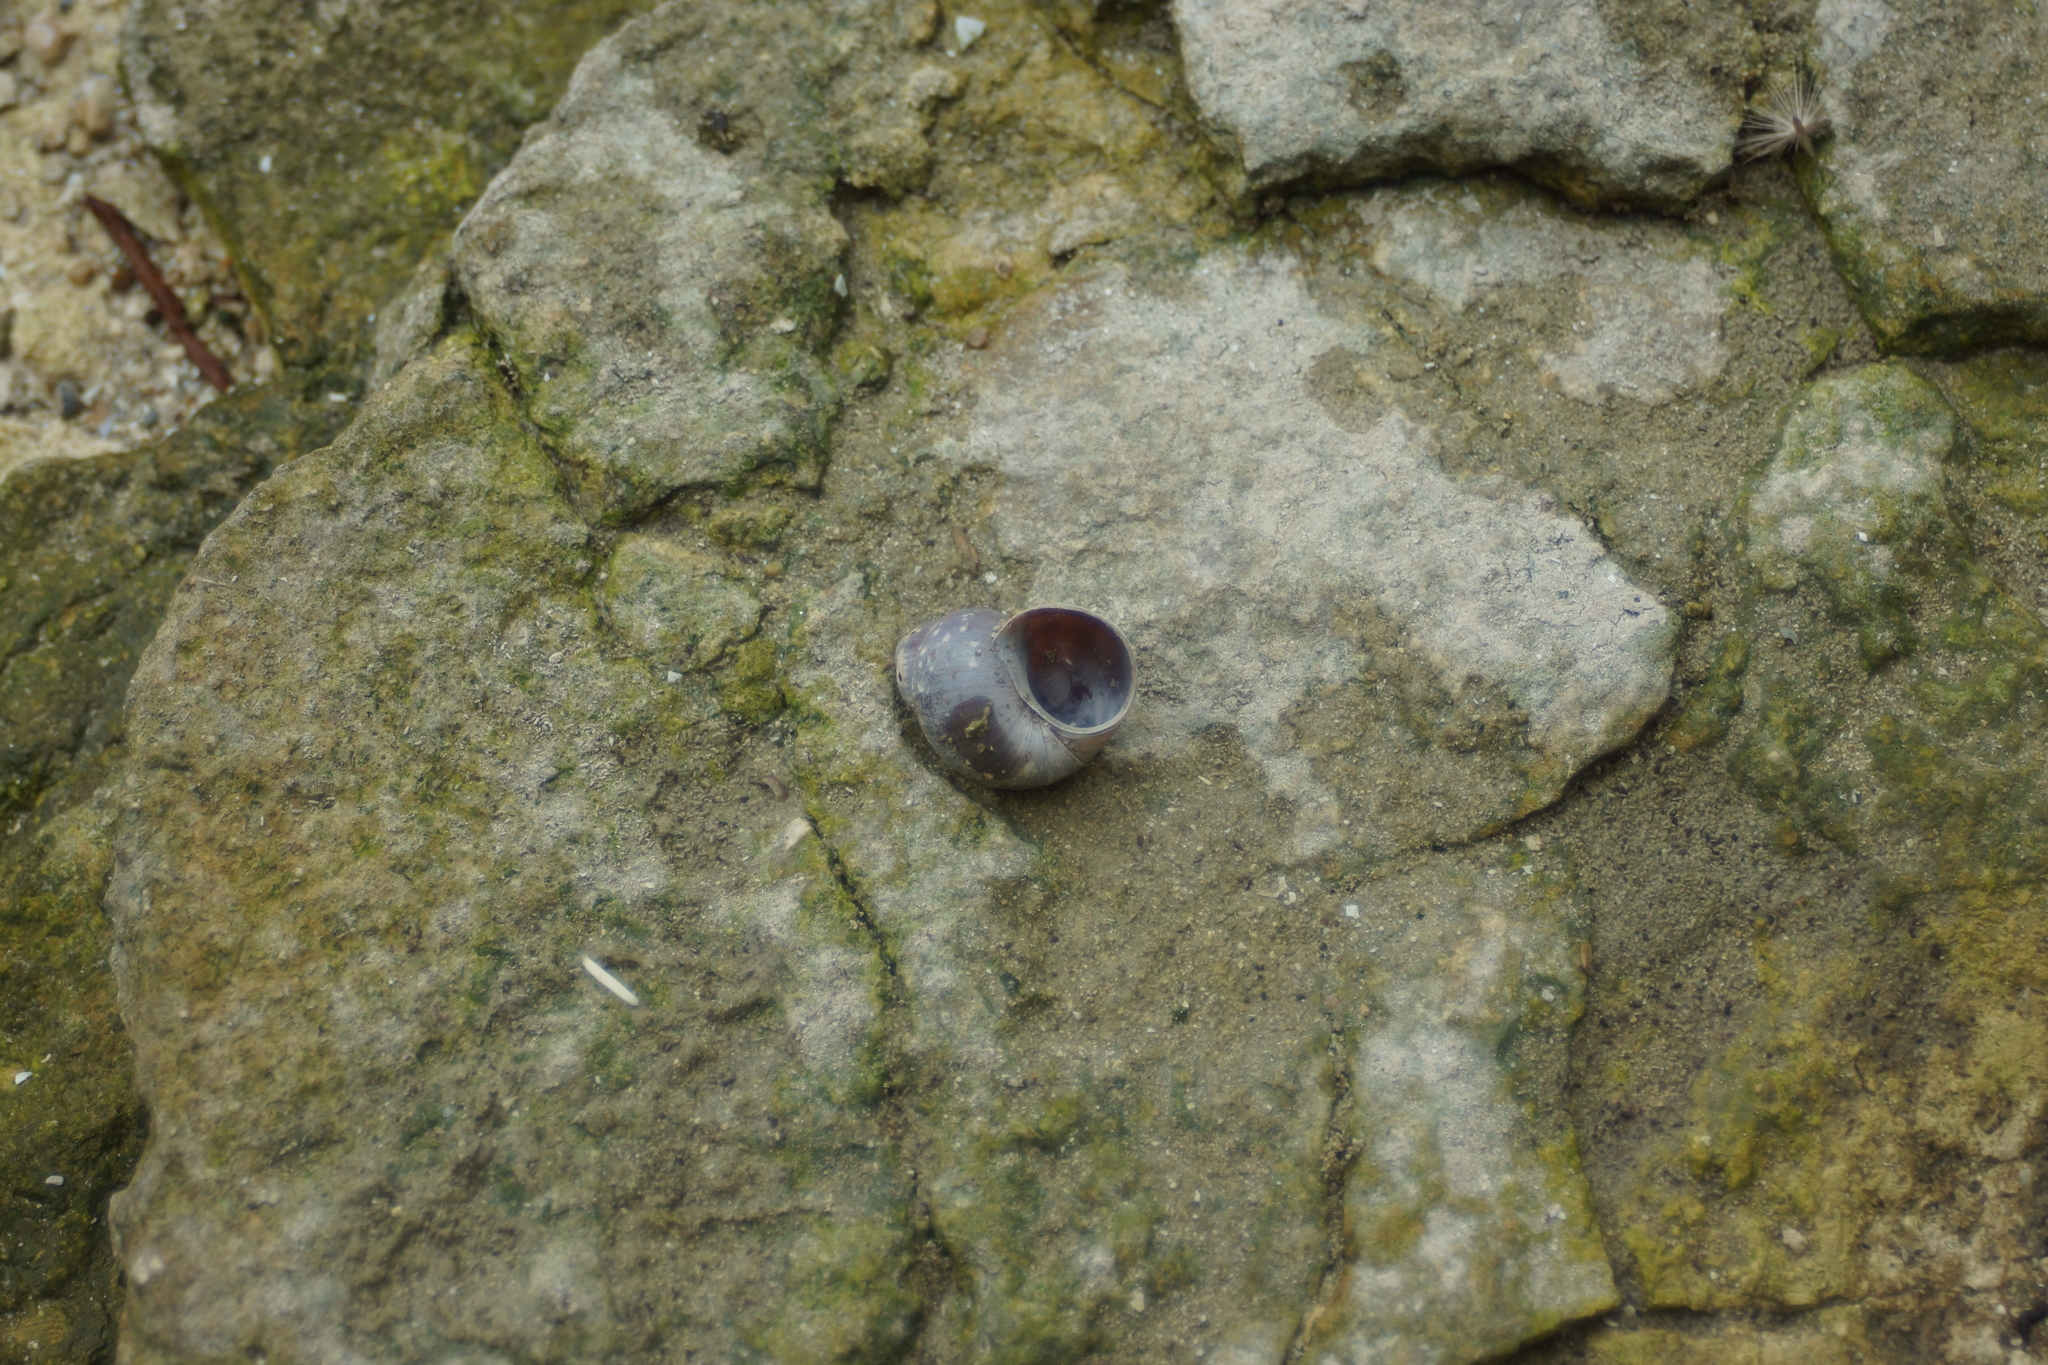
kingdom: Animalia
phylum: Mollusca
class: Gastropoda
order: Architaenioglossa
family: Viviparidae
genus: Viviparus
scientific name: Viviparus viviparus
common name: River snail
